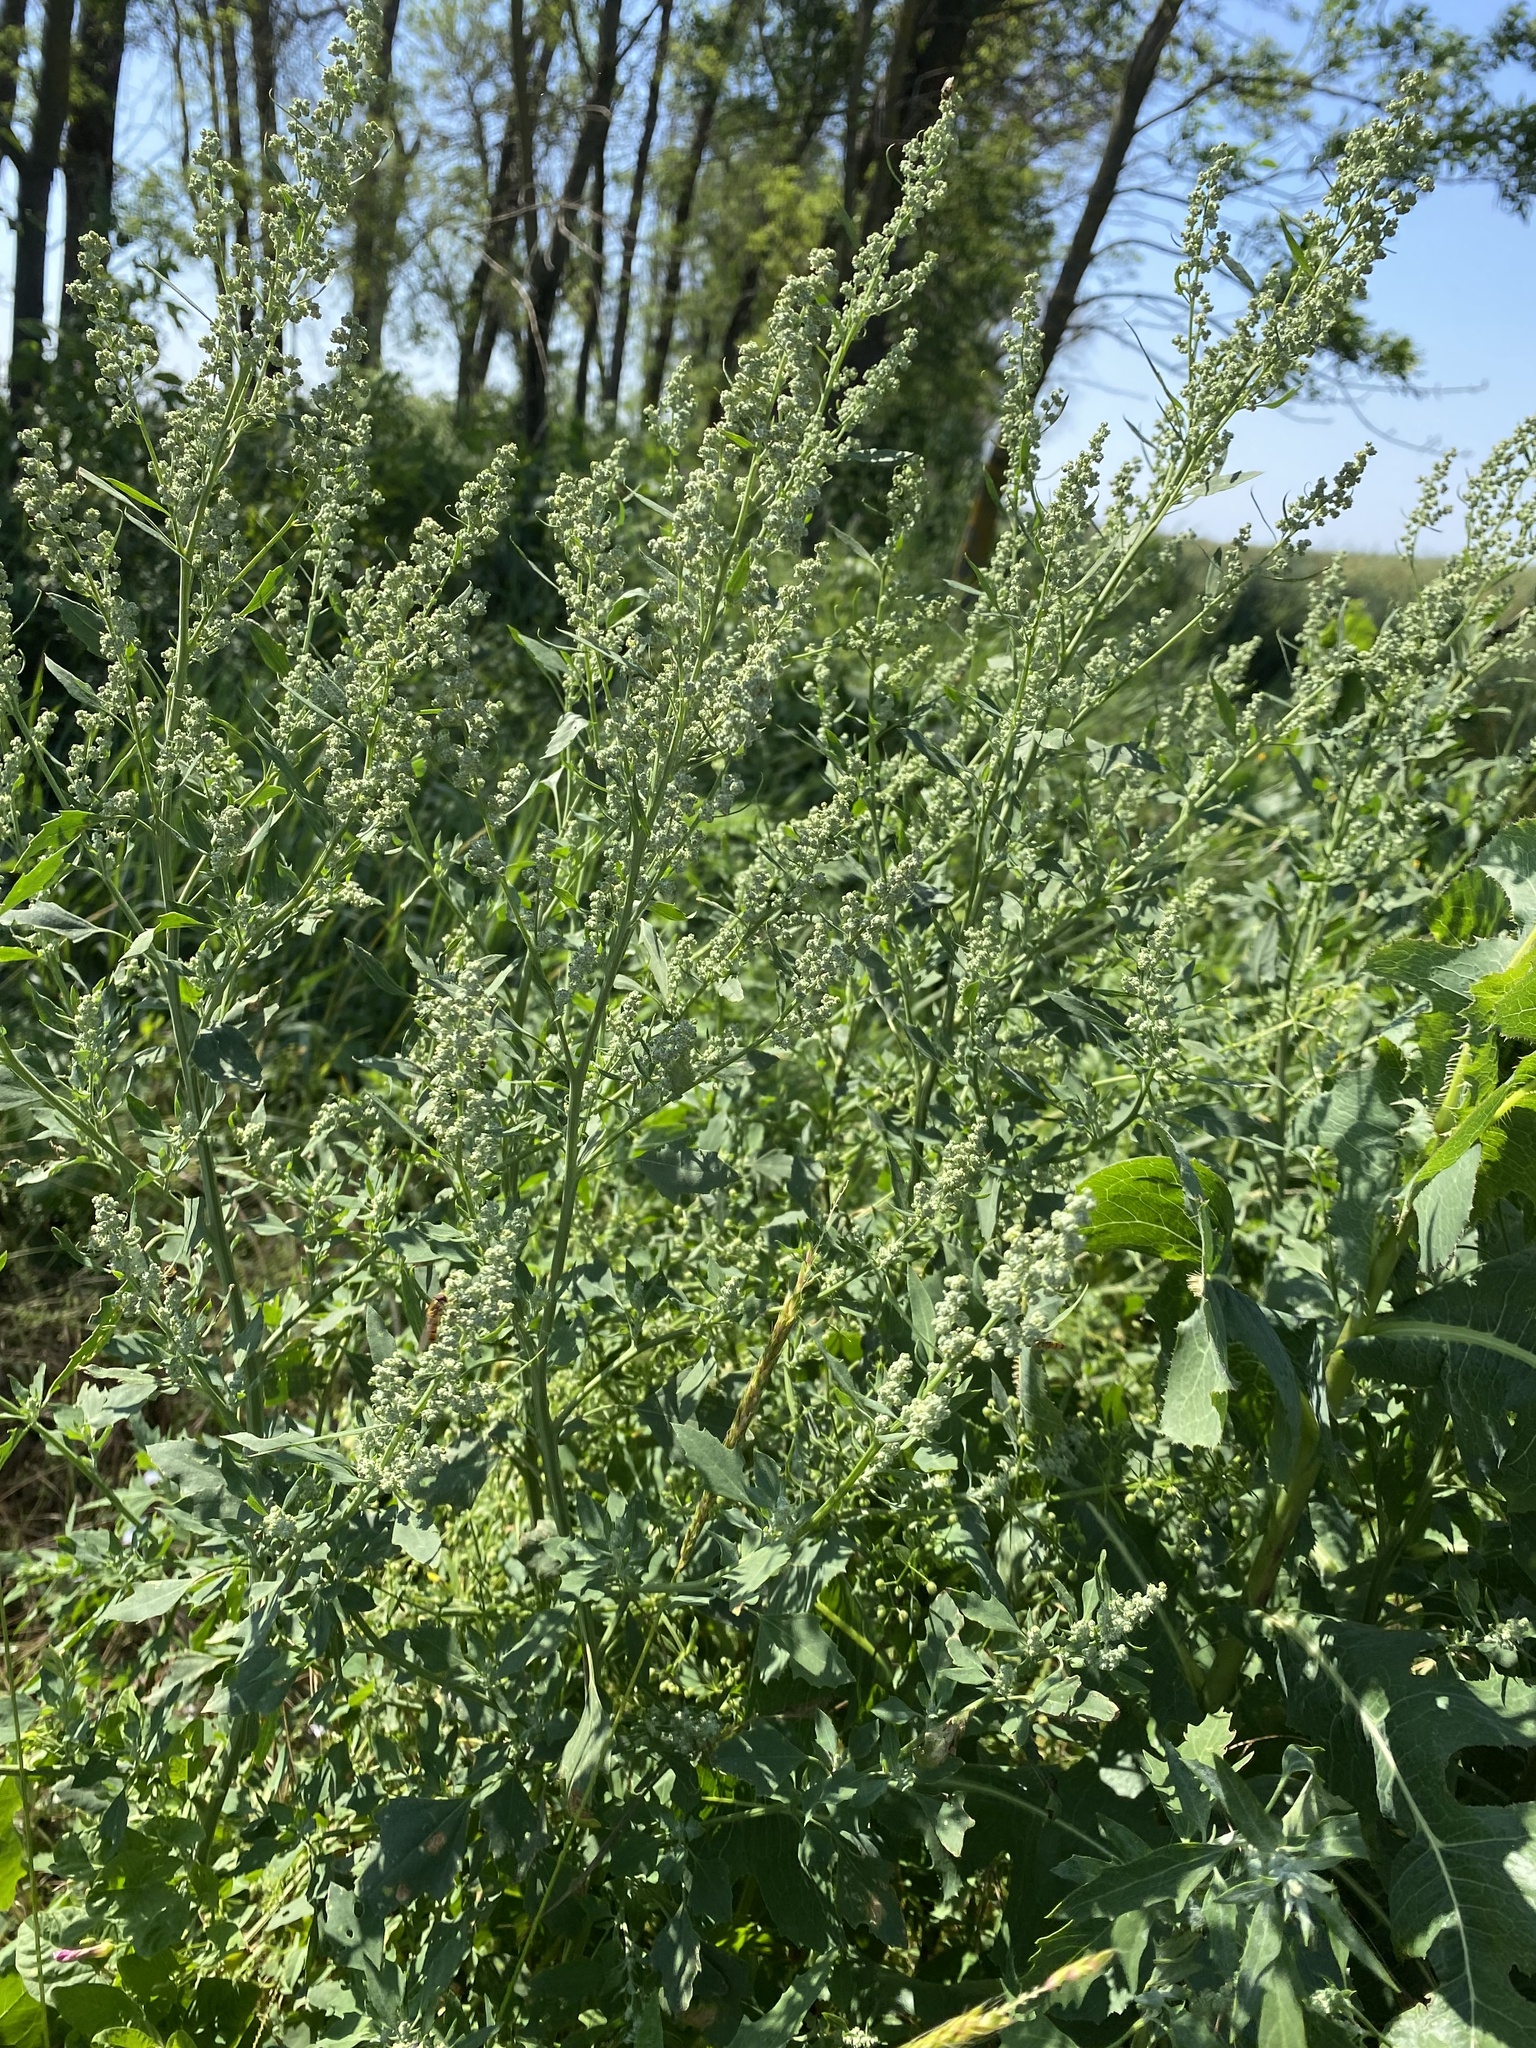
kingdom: Plantae
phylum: Tracheophyta
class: Magnoliopsida
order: Caryophyllales
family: Amaranthaceae
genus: Chenopodium
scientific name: Chenopodium album
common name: Fat-hen
